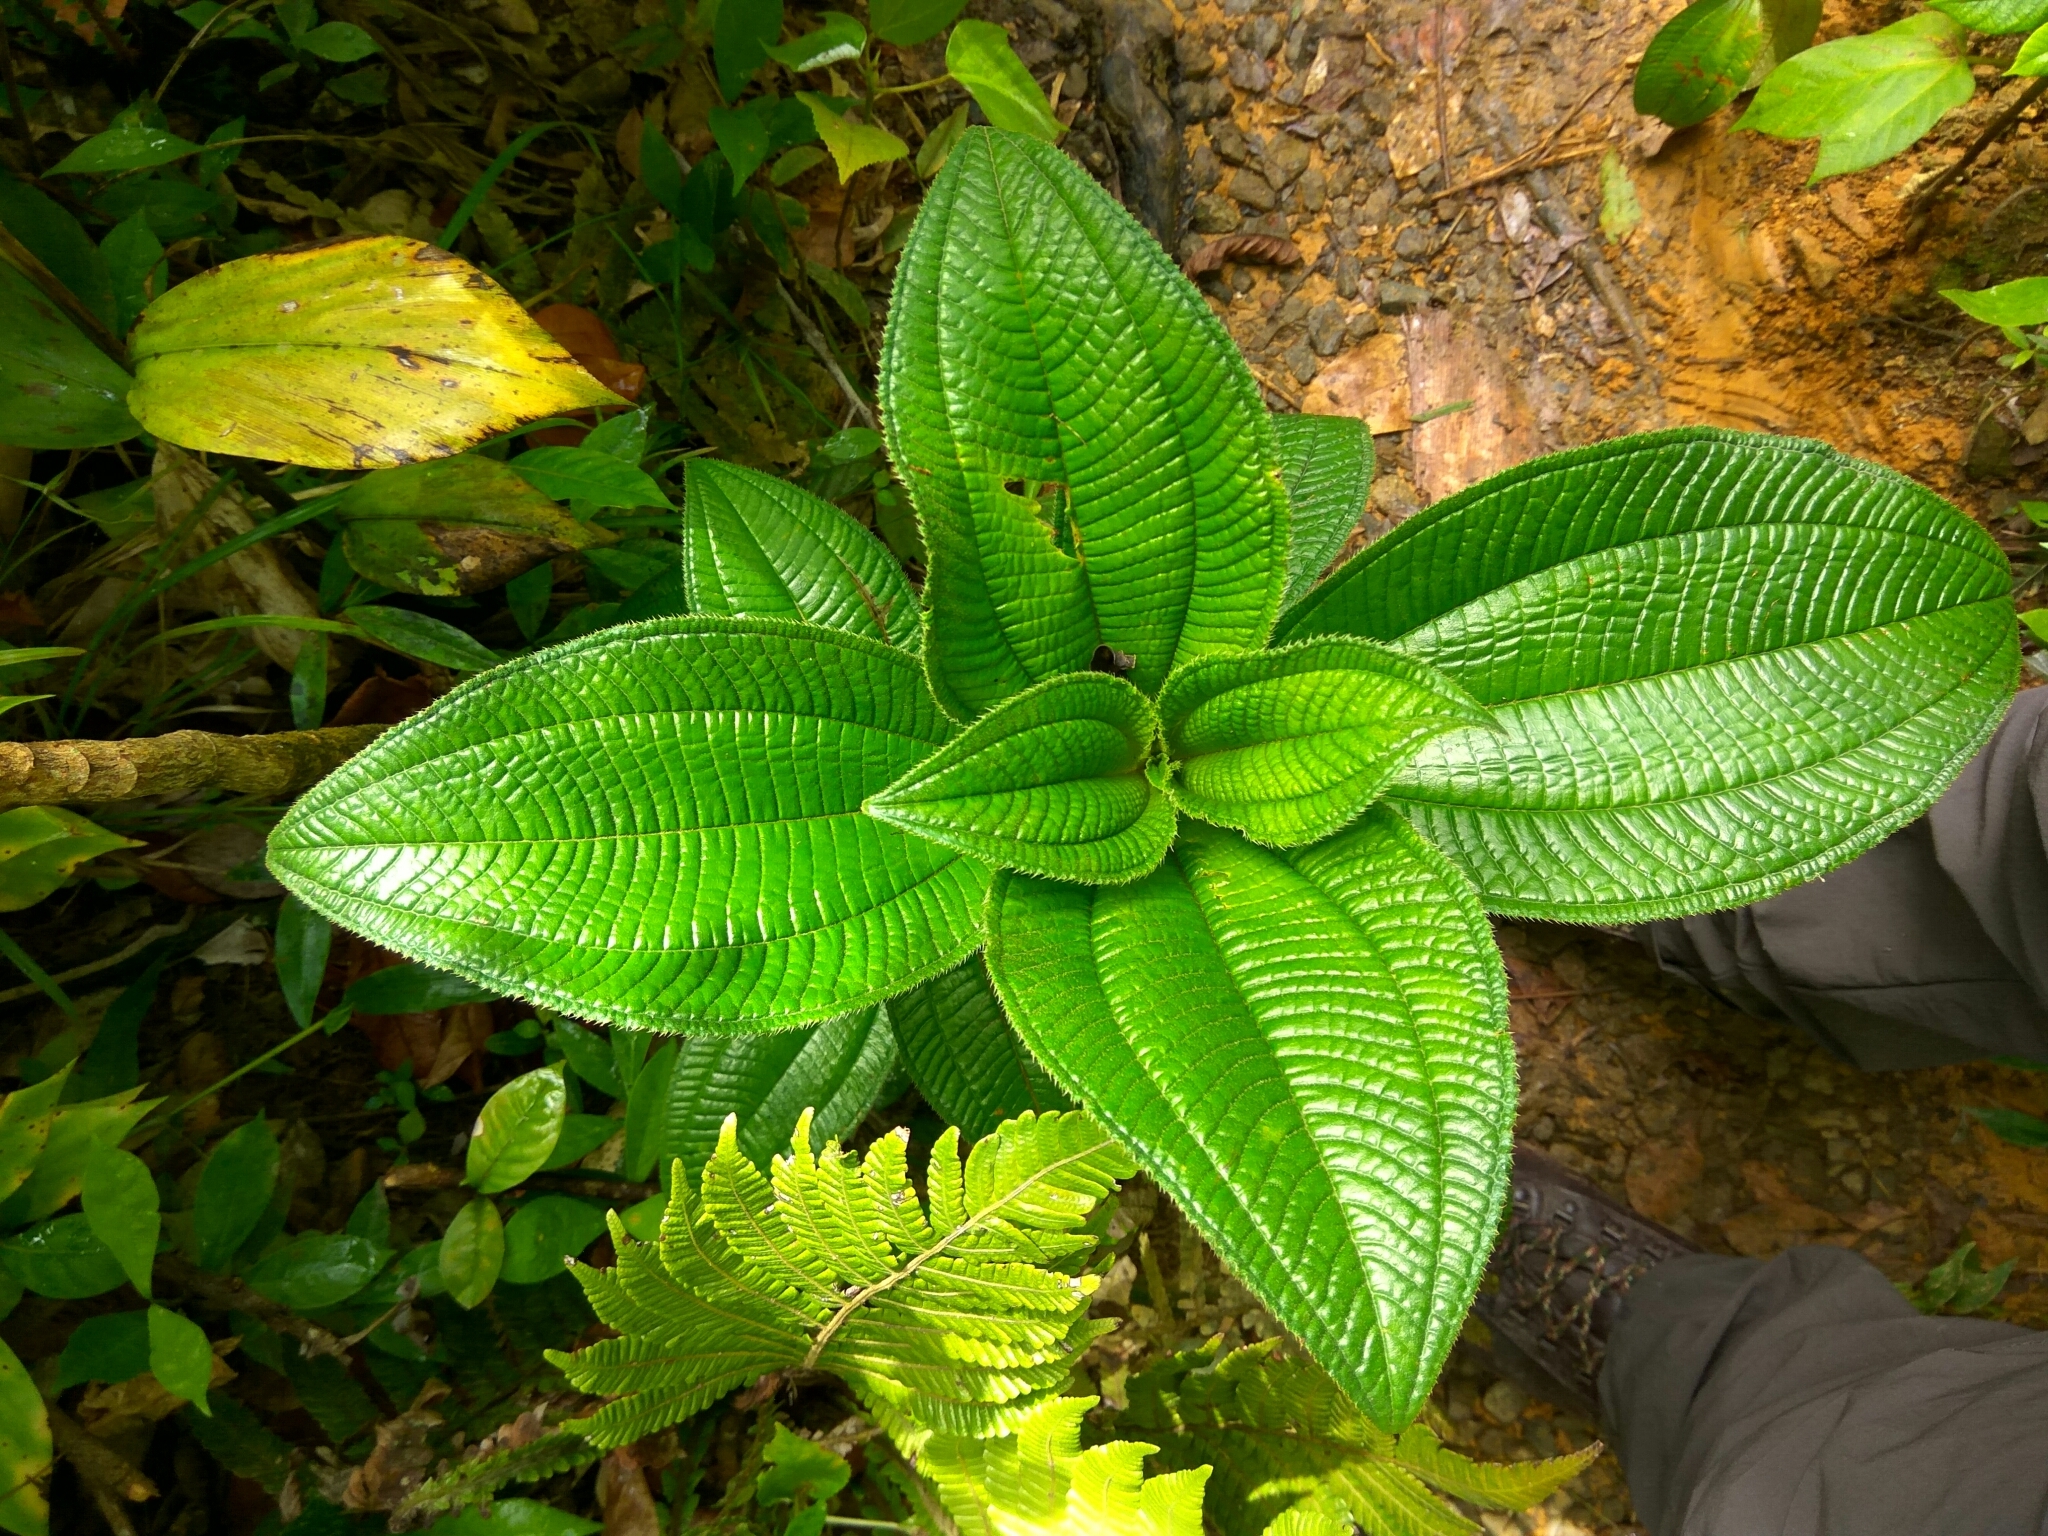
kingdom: Plantae
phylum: Tracheophyta
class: Magnoliopsida
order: Myrtales
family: Melastomataceae
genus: Miconia
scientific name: Miconia racemosa
